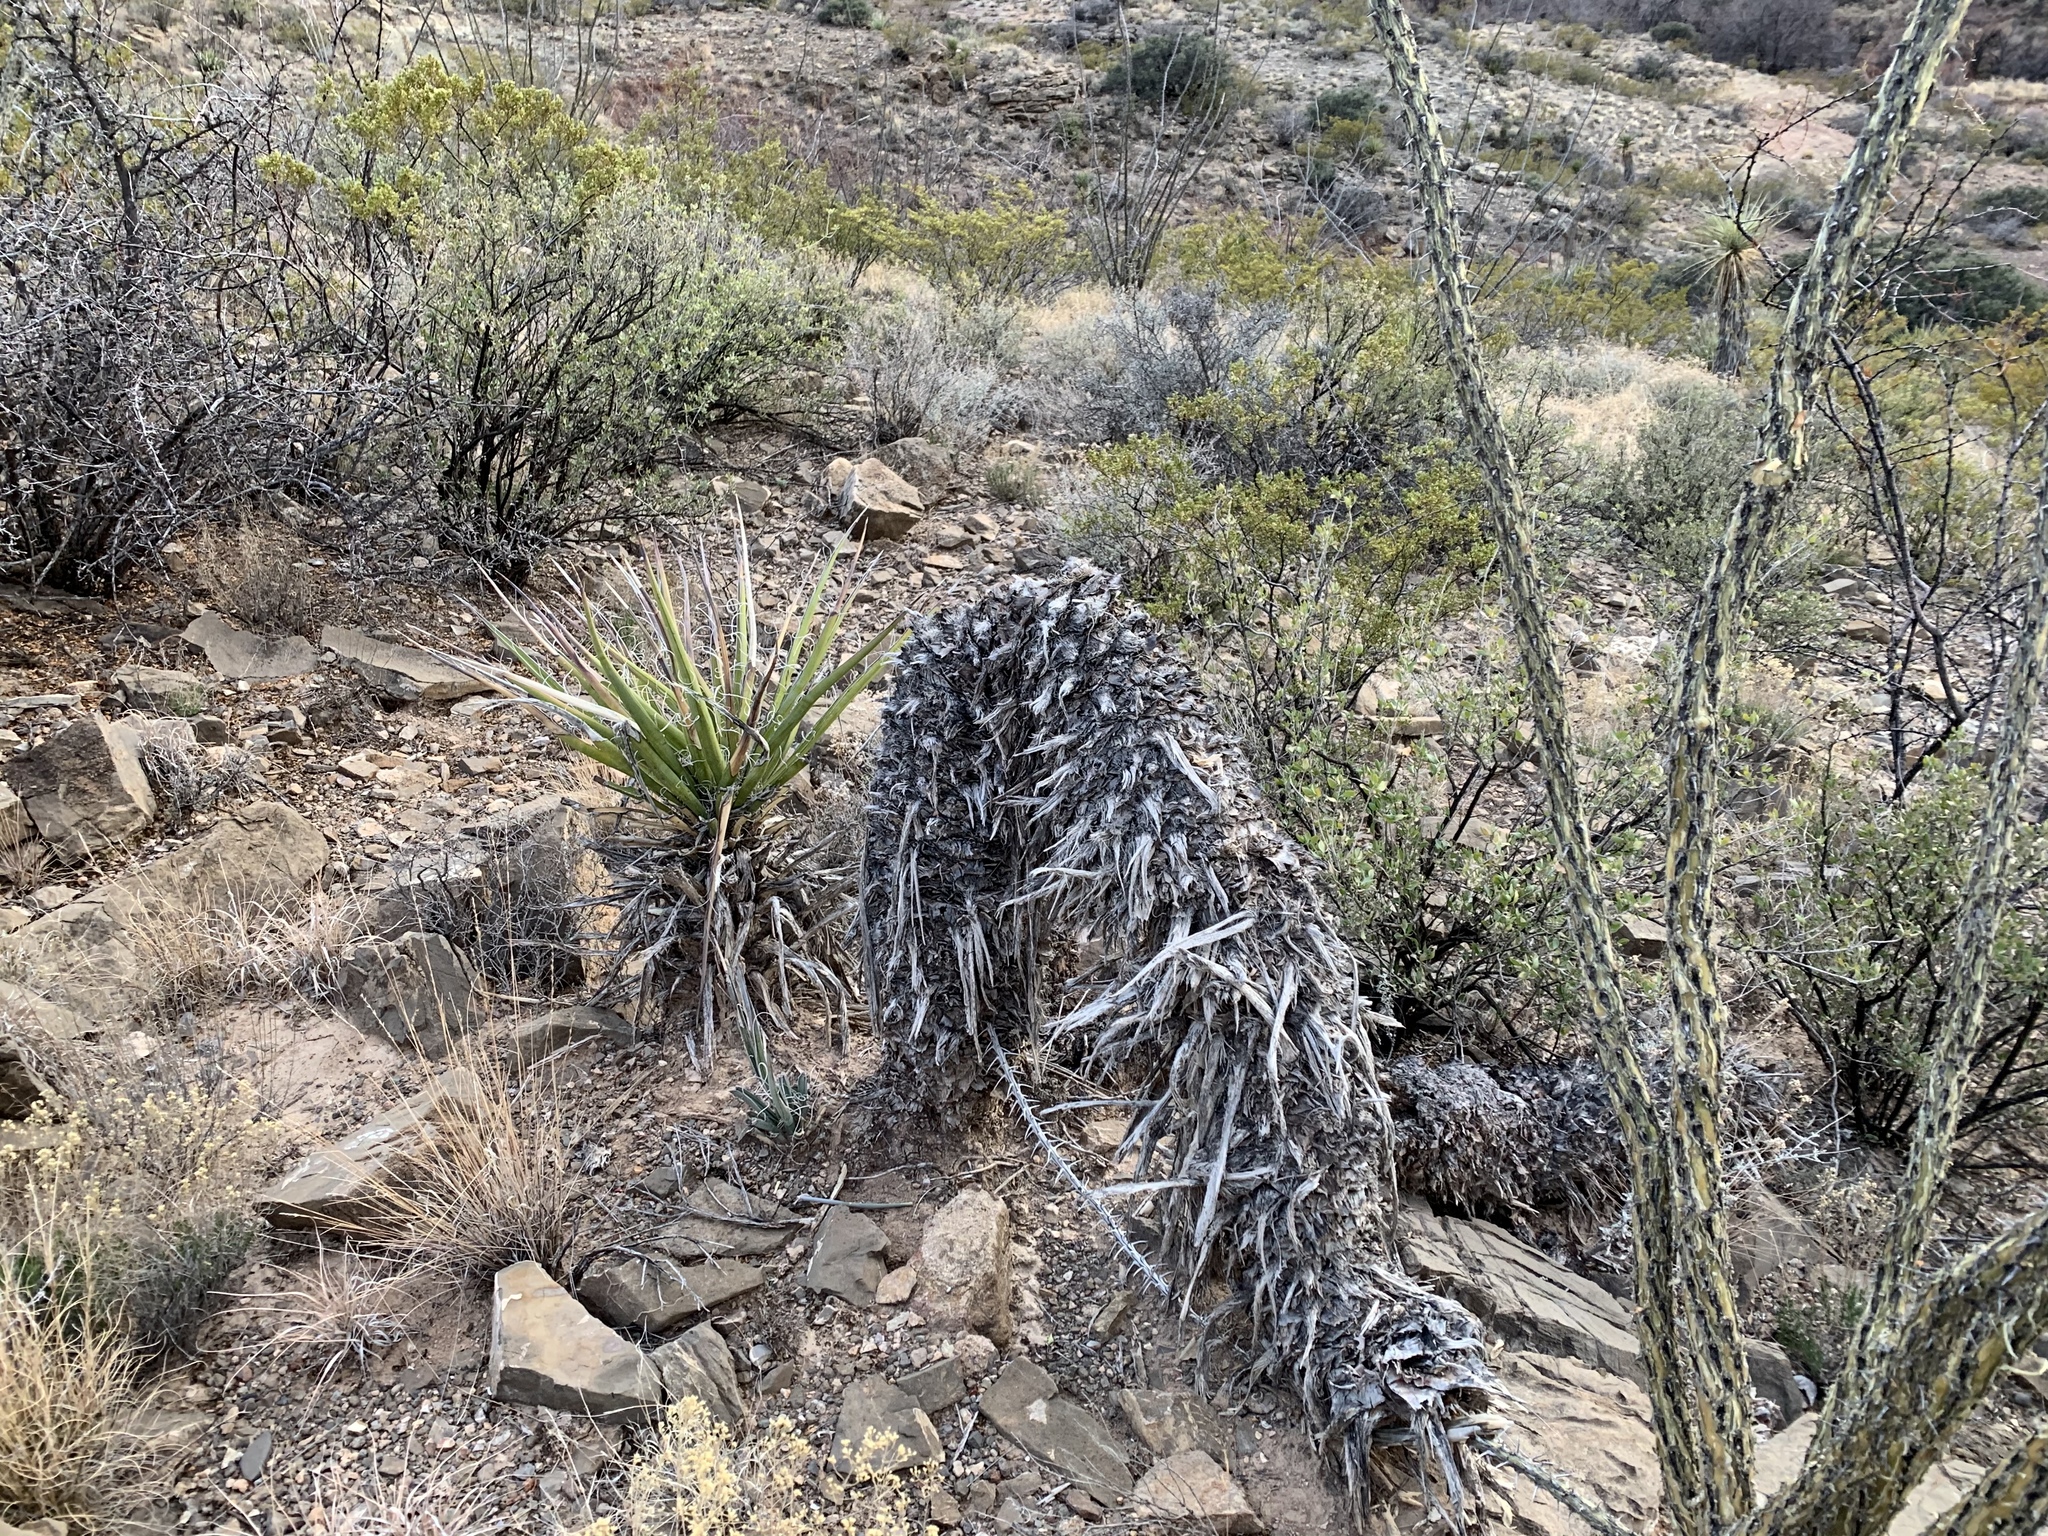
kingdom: Plantae
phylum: Tracheophyta
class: Liliopsida
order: Asparagales
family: Asparagaceae
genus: Yucca
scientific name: Yucca treculiana
